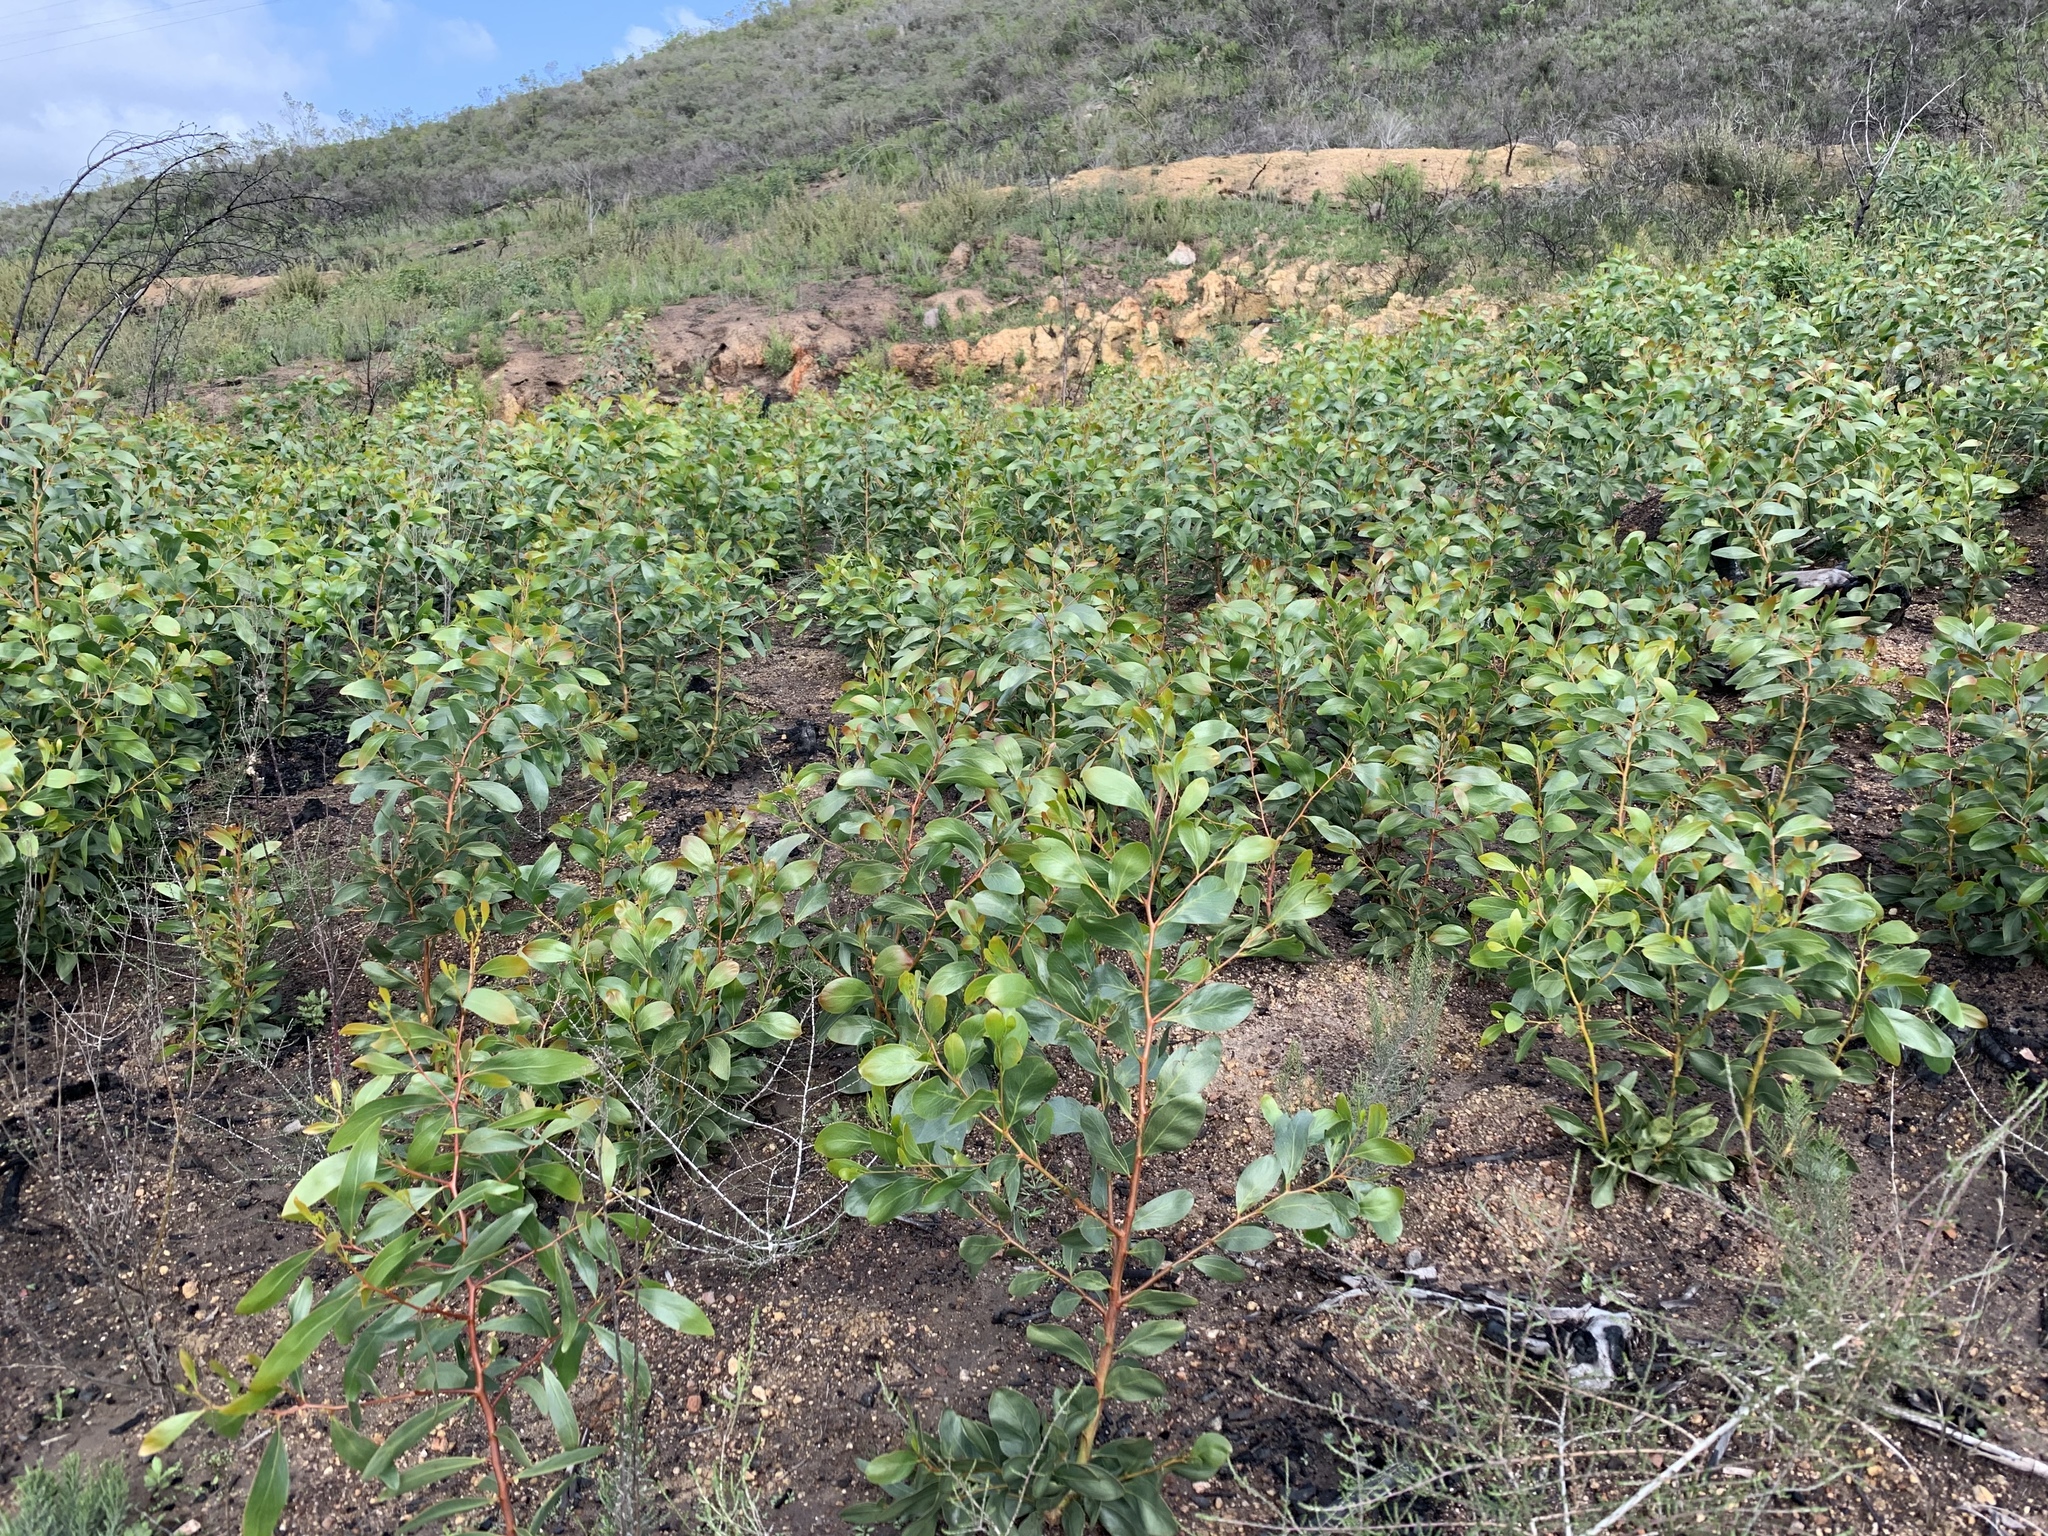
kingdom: Plantae
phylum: Tracheophyta
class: Magnoliopsida
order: Fabales
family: Fabaceae
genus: Acacia
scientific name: Acacia pycnantha
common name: Golden wattle
